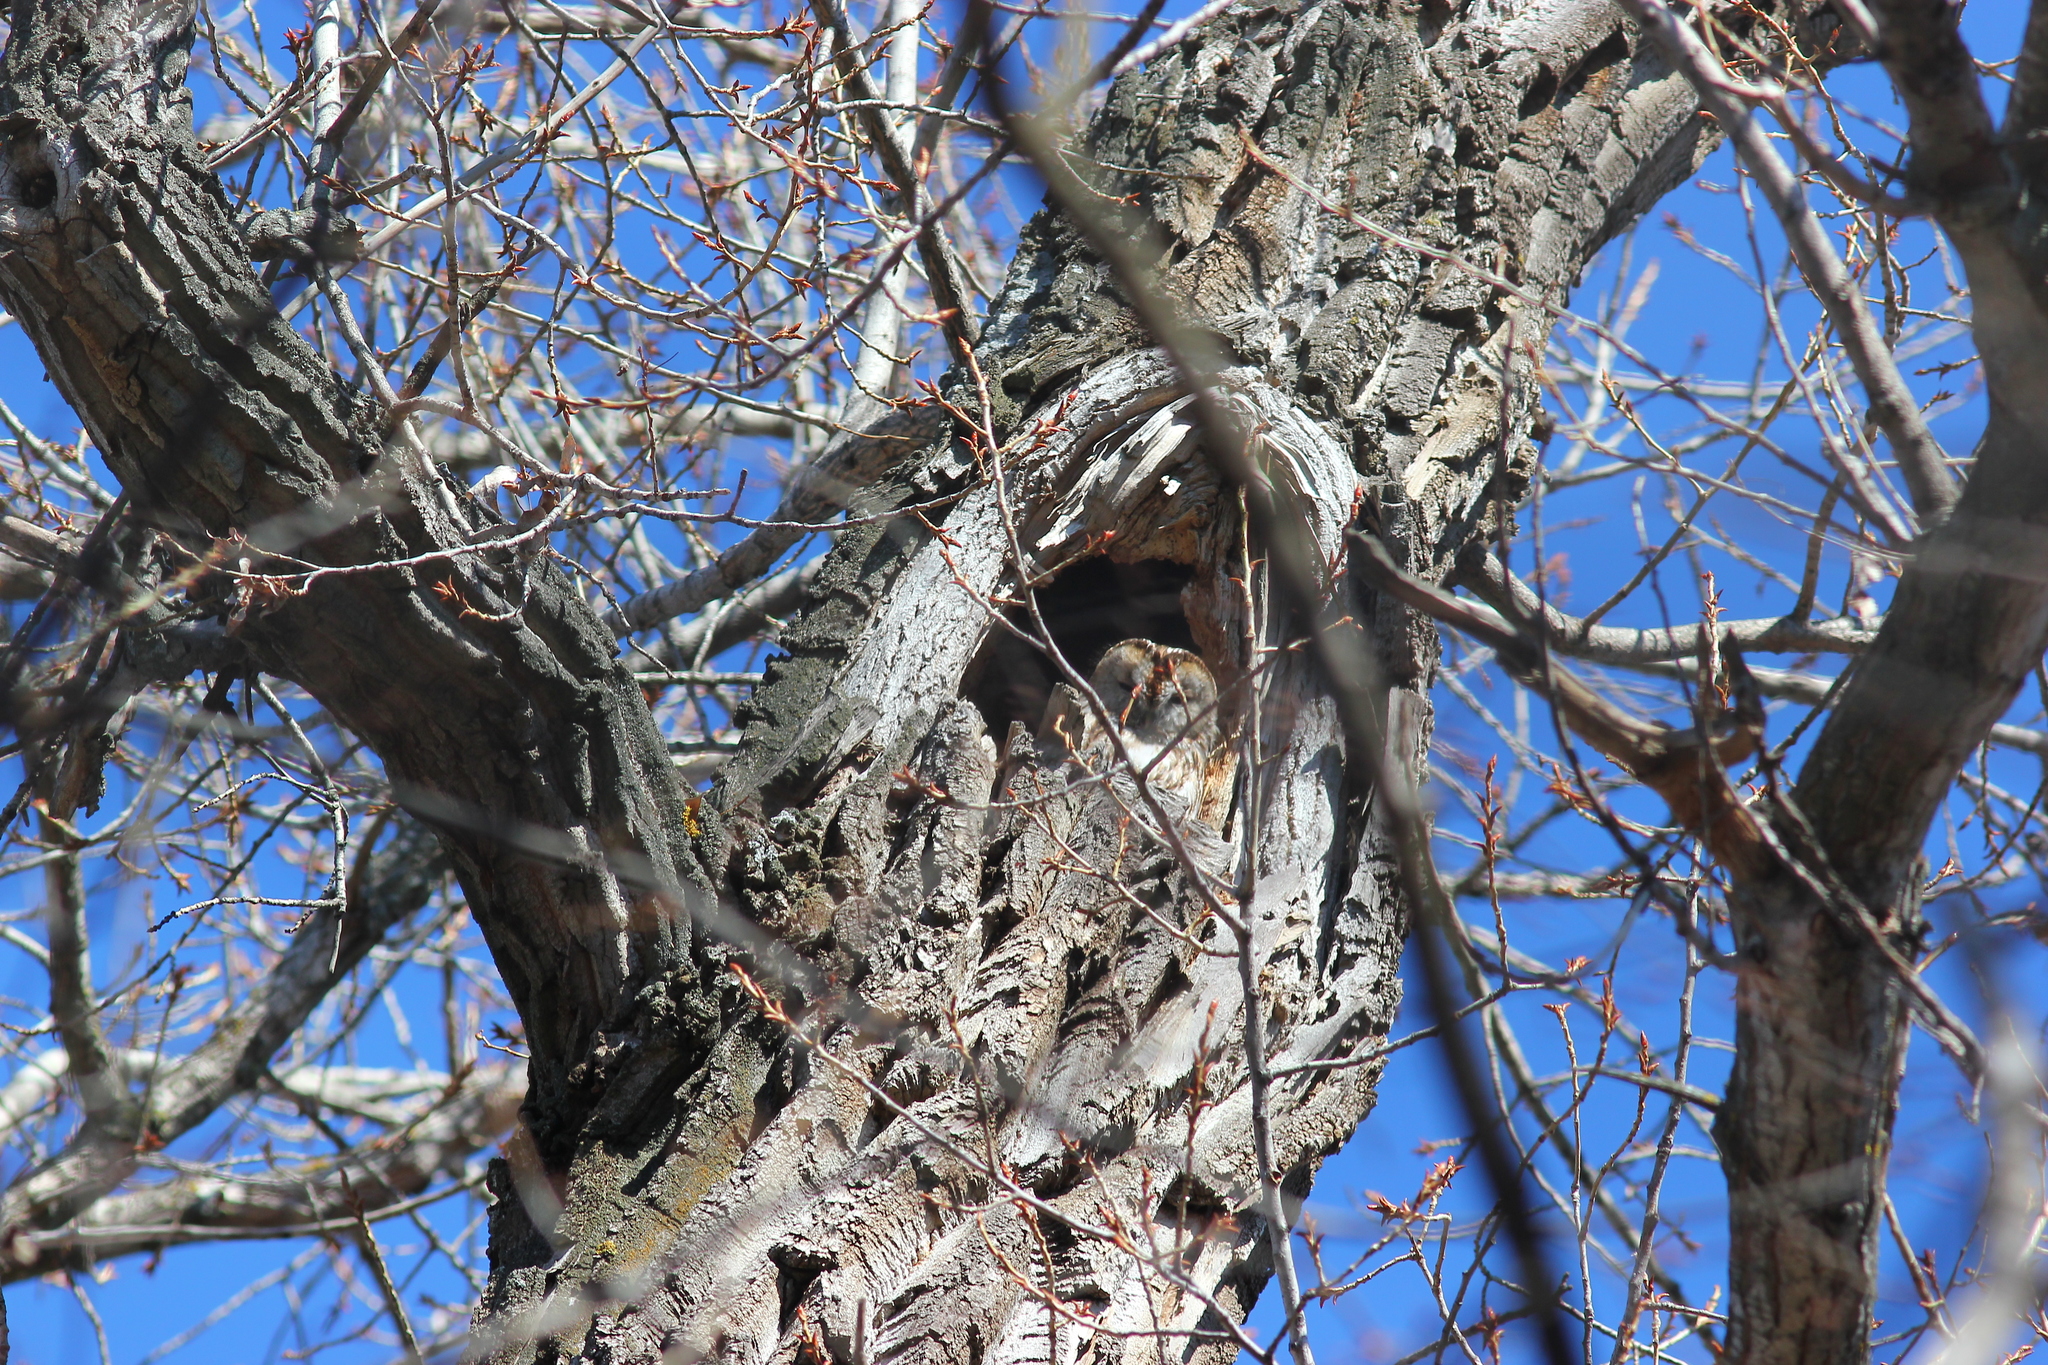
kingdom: Animalia
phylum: Chordata
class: Aves
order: Strigiformes
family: Strigidae
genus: Strix
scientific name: Strix aluco
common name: Tawny owl
